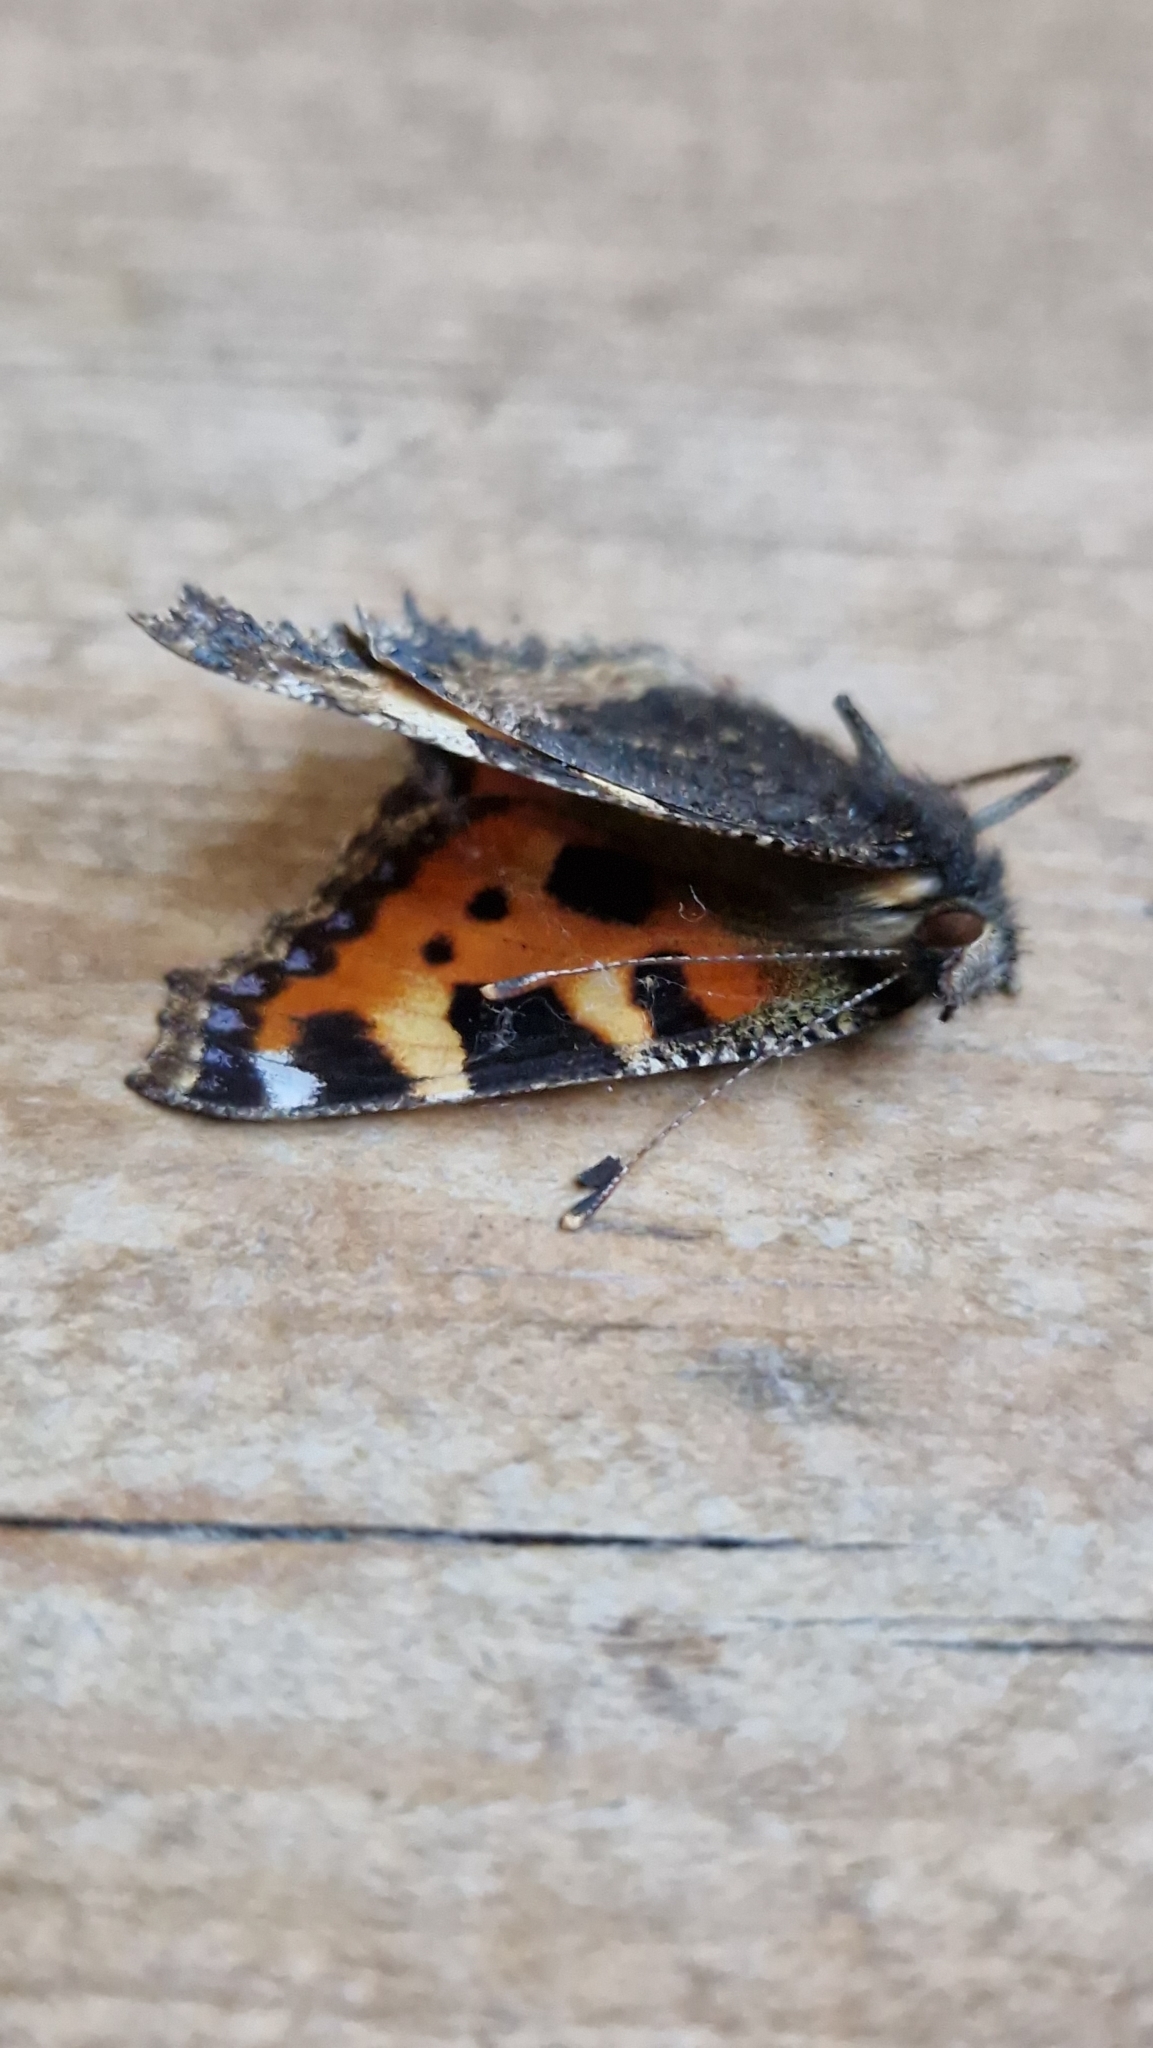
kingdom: Animalia
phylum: Arthropoda
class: Insecta
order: Lepidoptera
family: Nymphalidae
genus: Aglais
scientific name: Aglais urticae
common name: Small tortoiseshell
